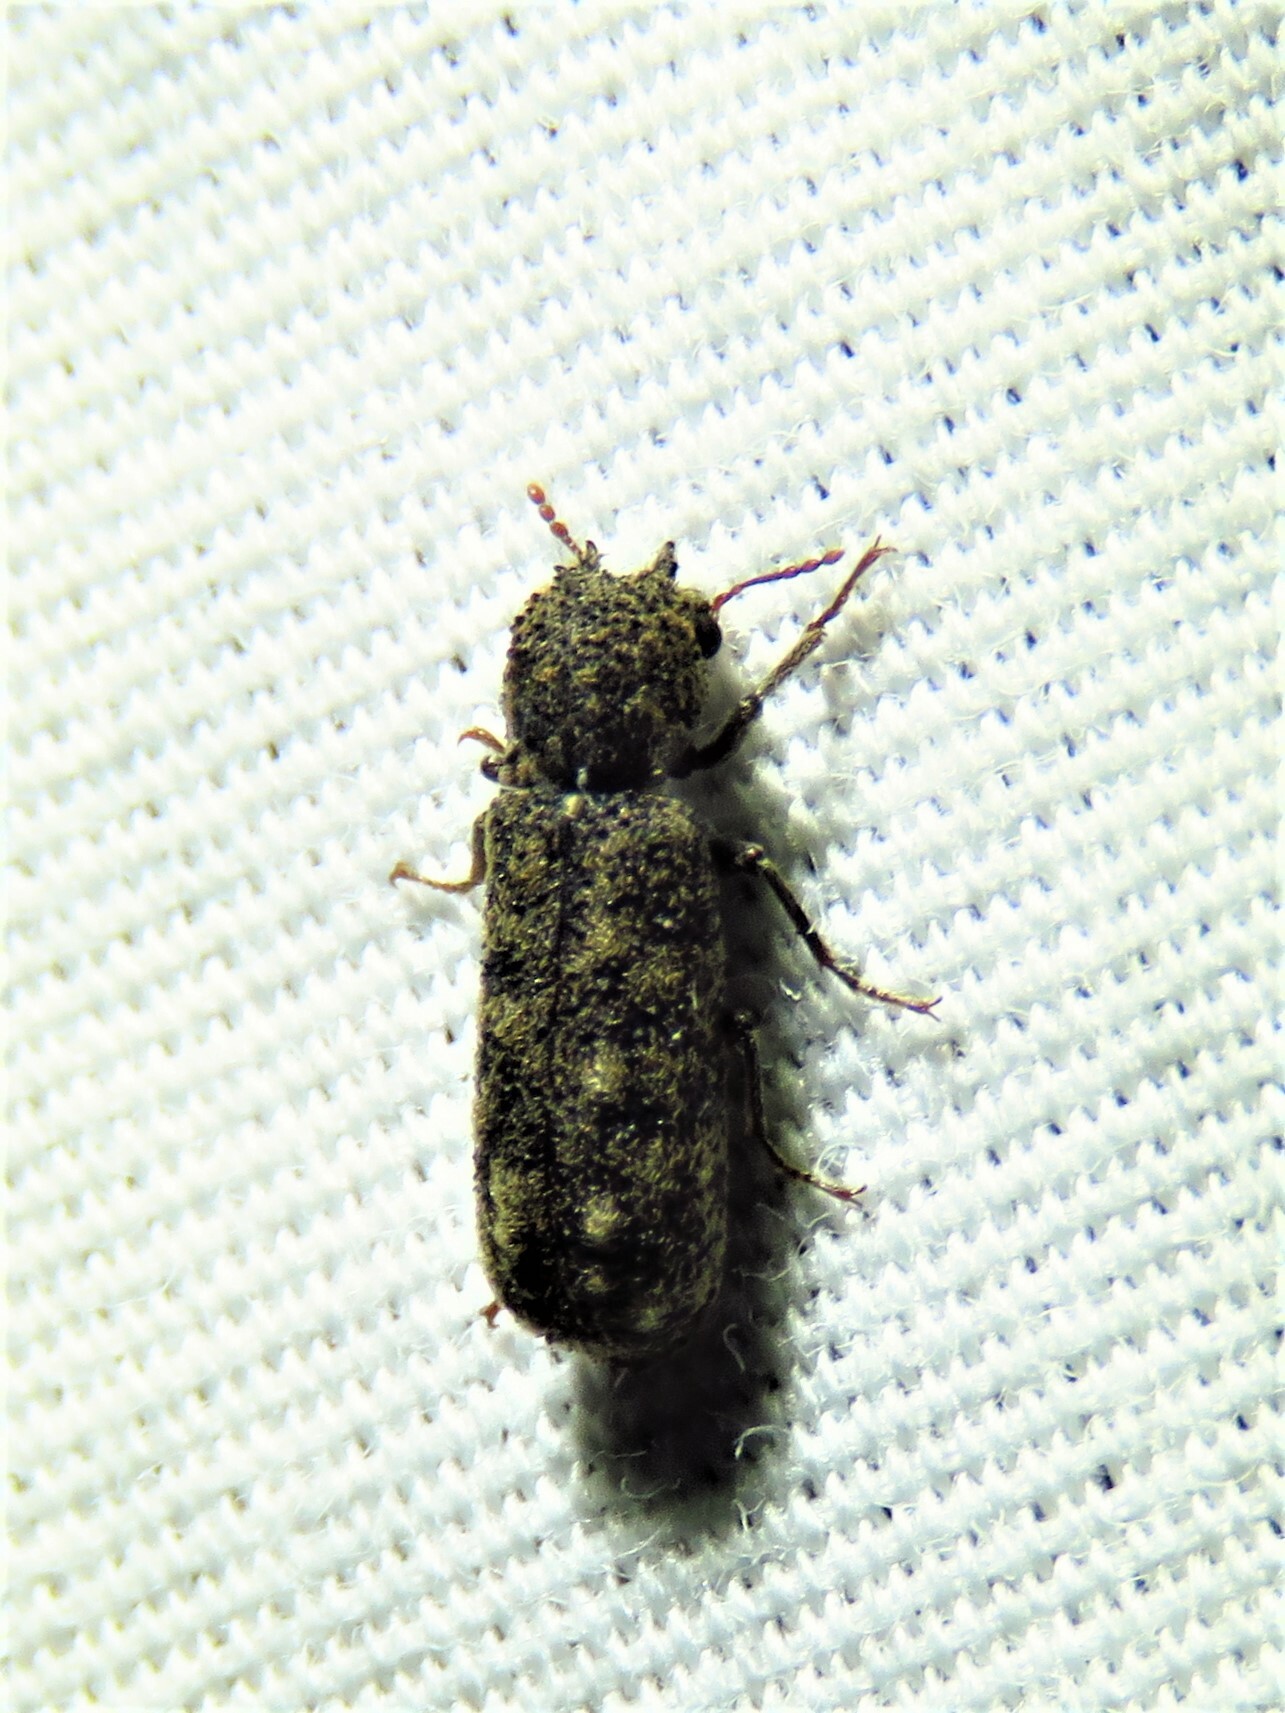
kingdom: Animalia
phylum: Arthropoda
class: Insecta
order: Coleoptera
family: Bostrichidae
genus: Lichenophanes
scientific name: Lichenophanes bicornis
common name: Two-horned powder-post beetle
